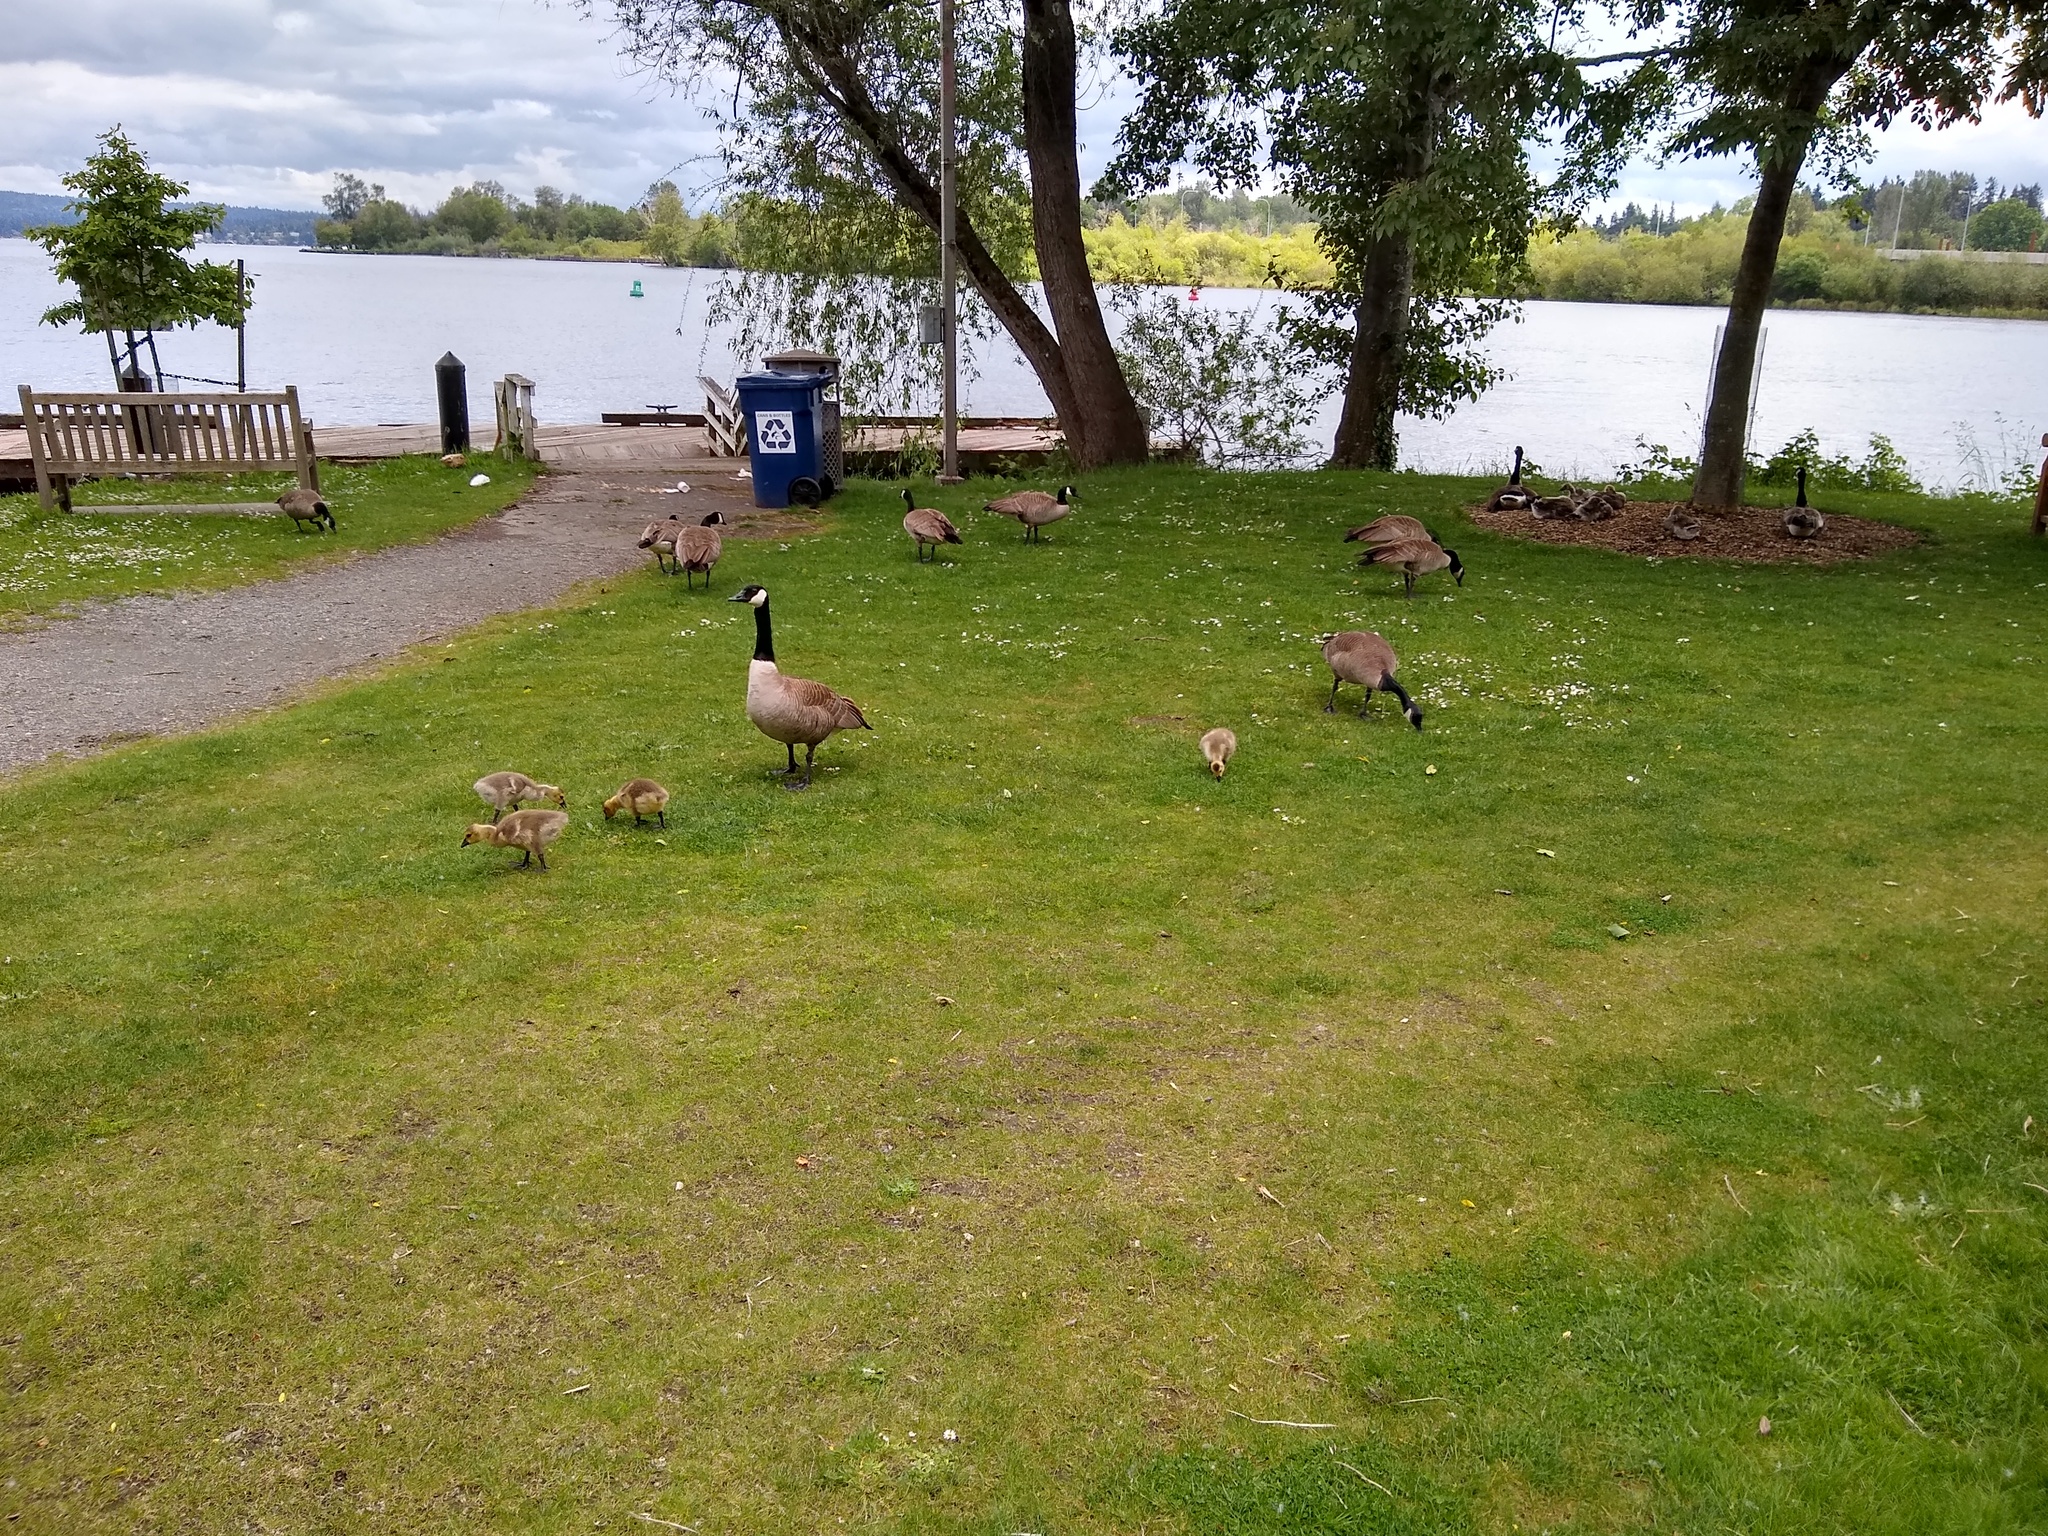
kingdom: Animalia
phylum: Chordata
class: Aves
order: Anseriformes
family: Anatidae
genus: Branta
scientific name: Branta canadensis
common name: Canada goose
